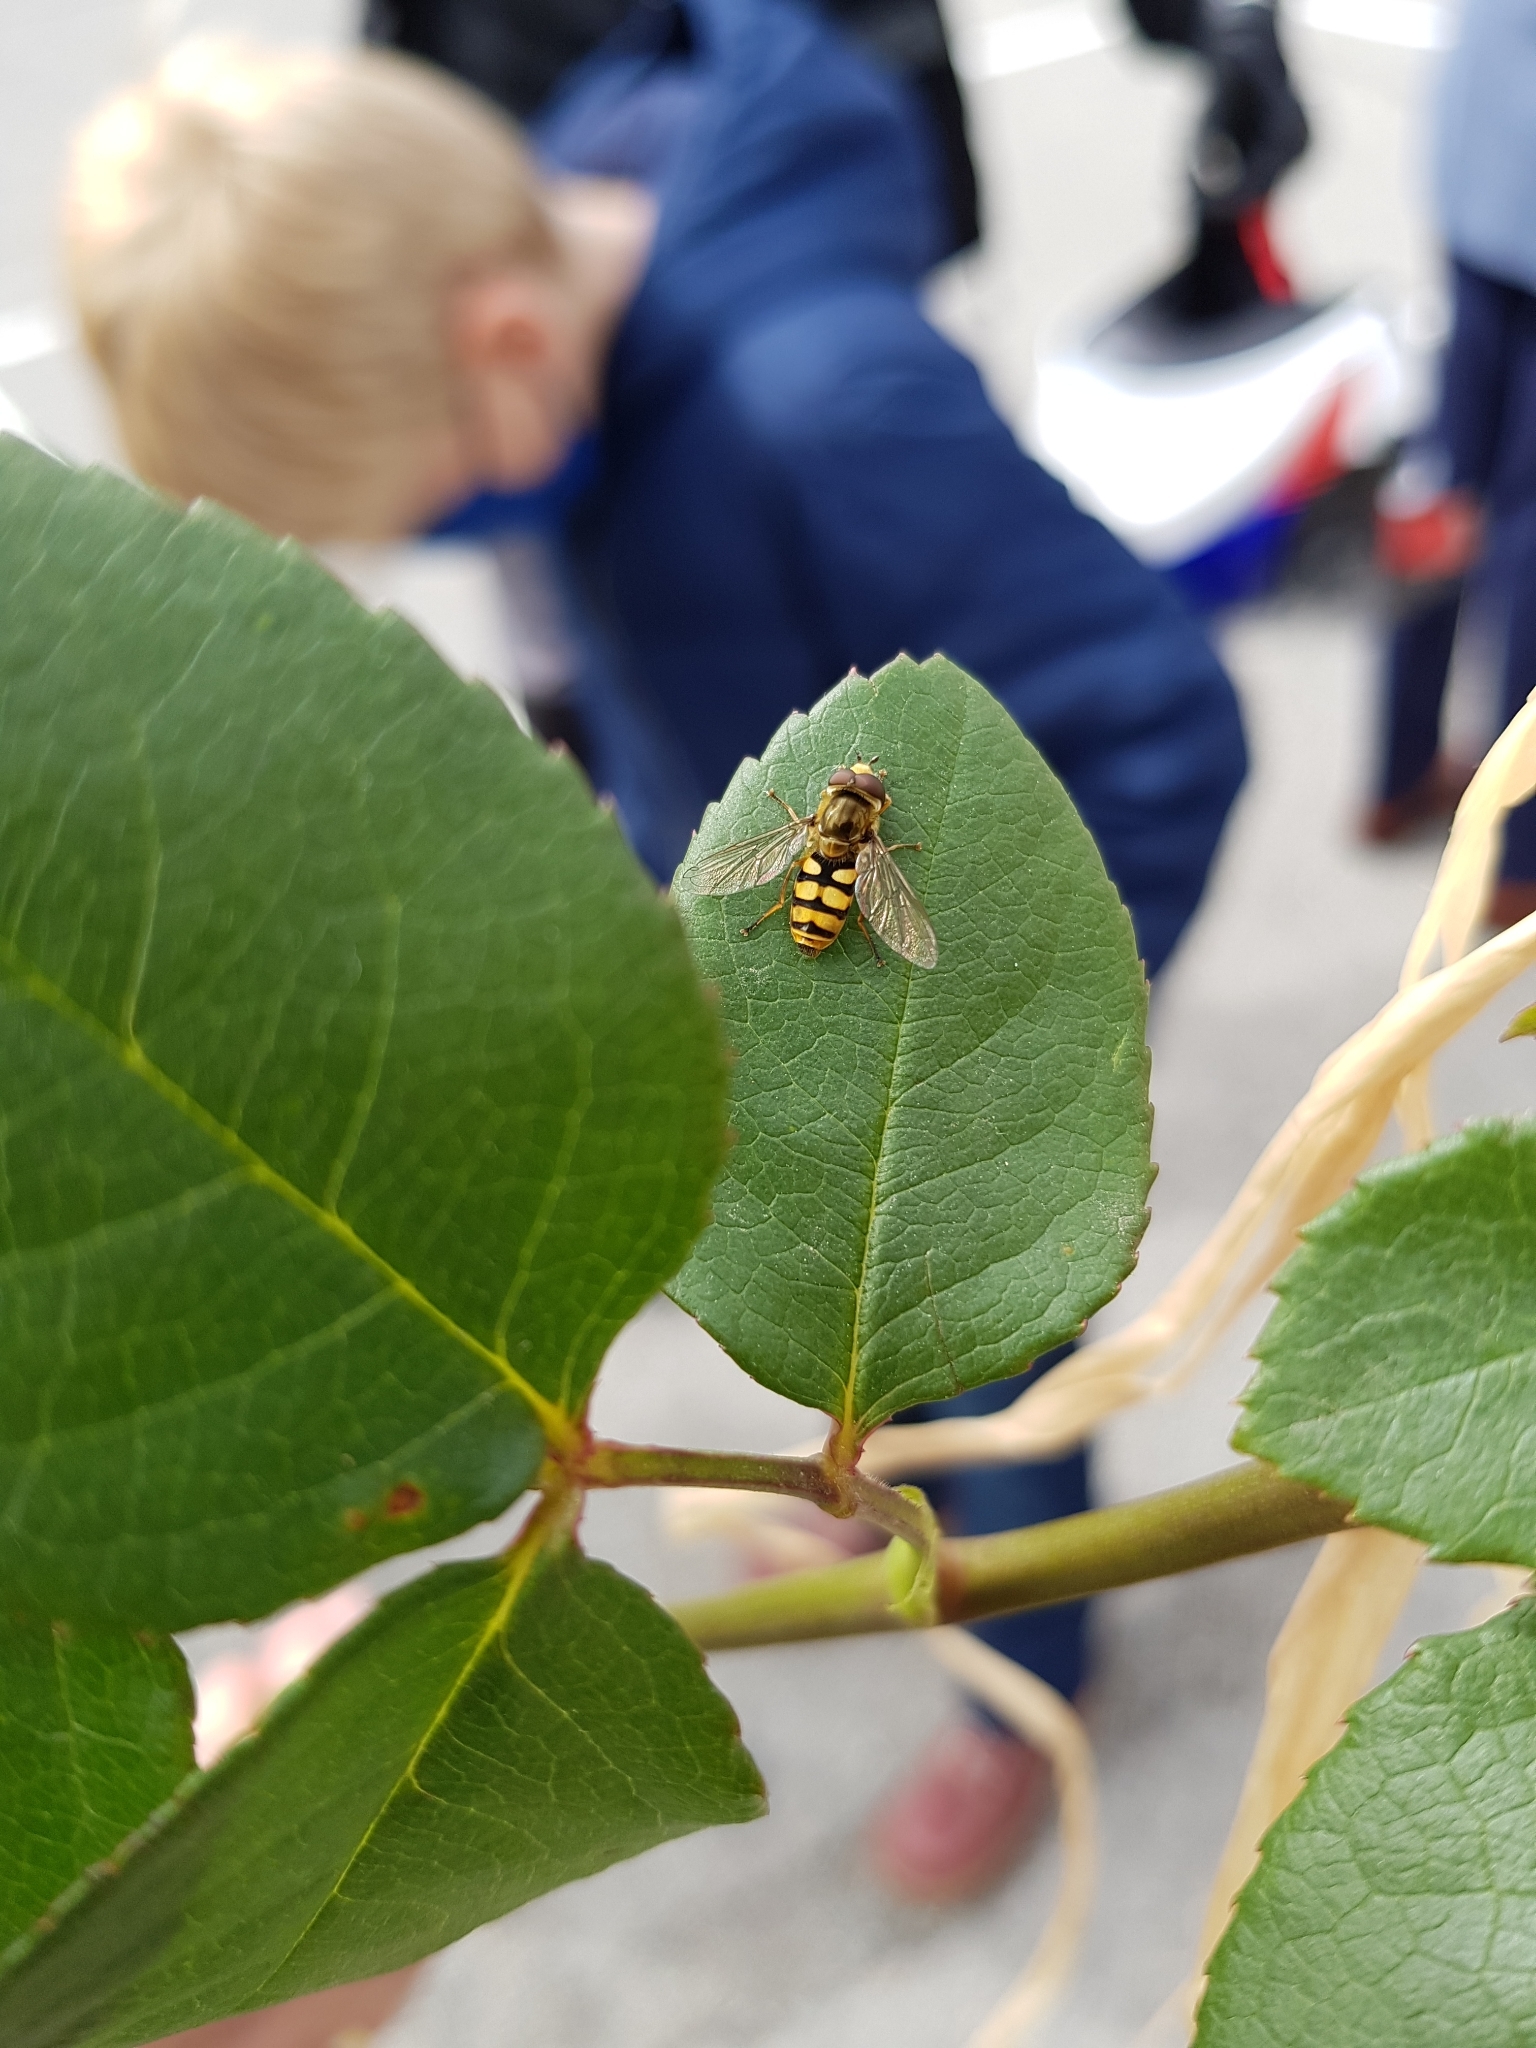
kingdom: Animalia
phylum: Arthropoda
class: Insecta
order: Diptera
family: Syrphidae
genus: Eupeodes
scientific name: Eupeodes corollae
